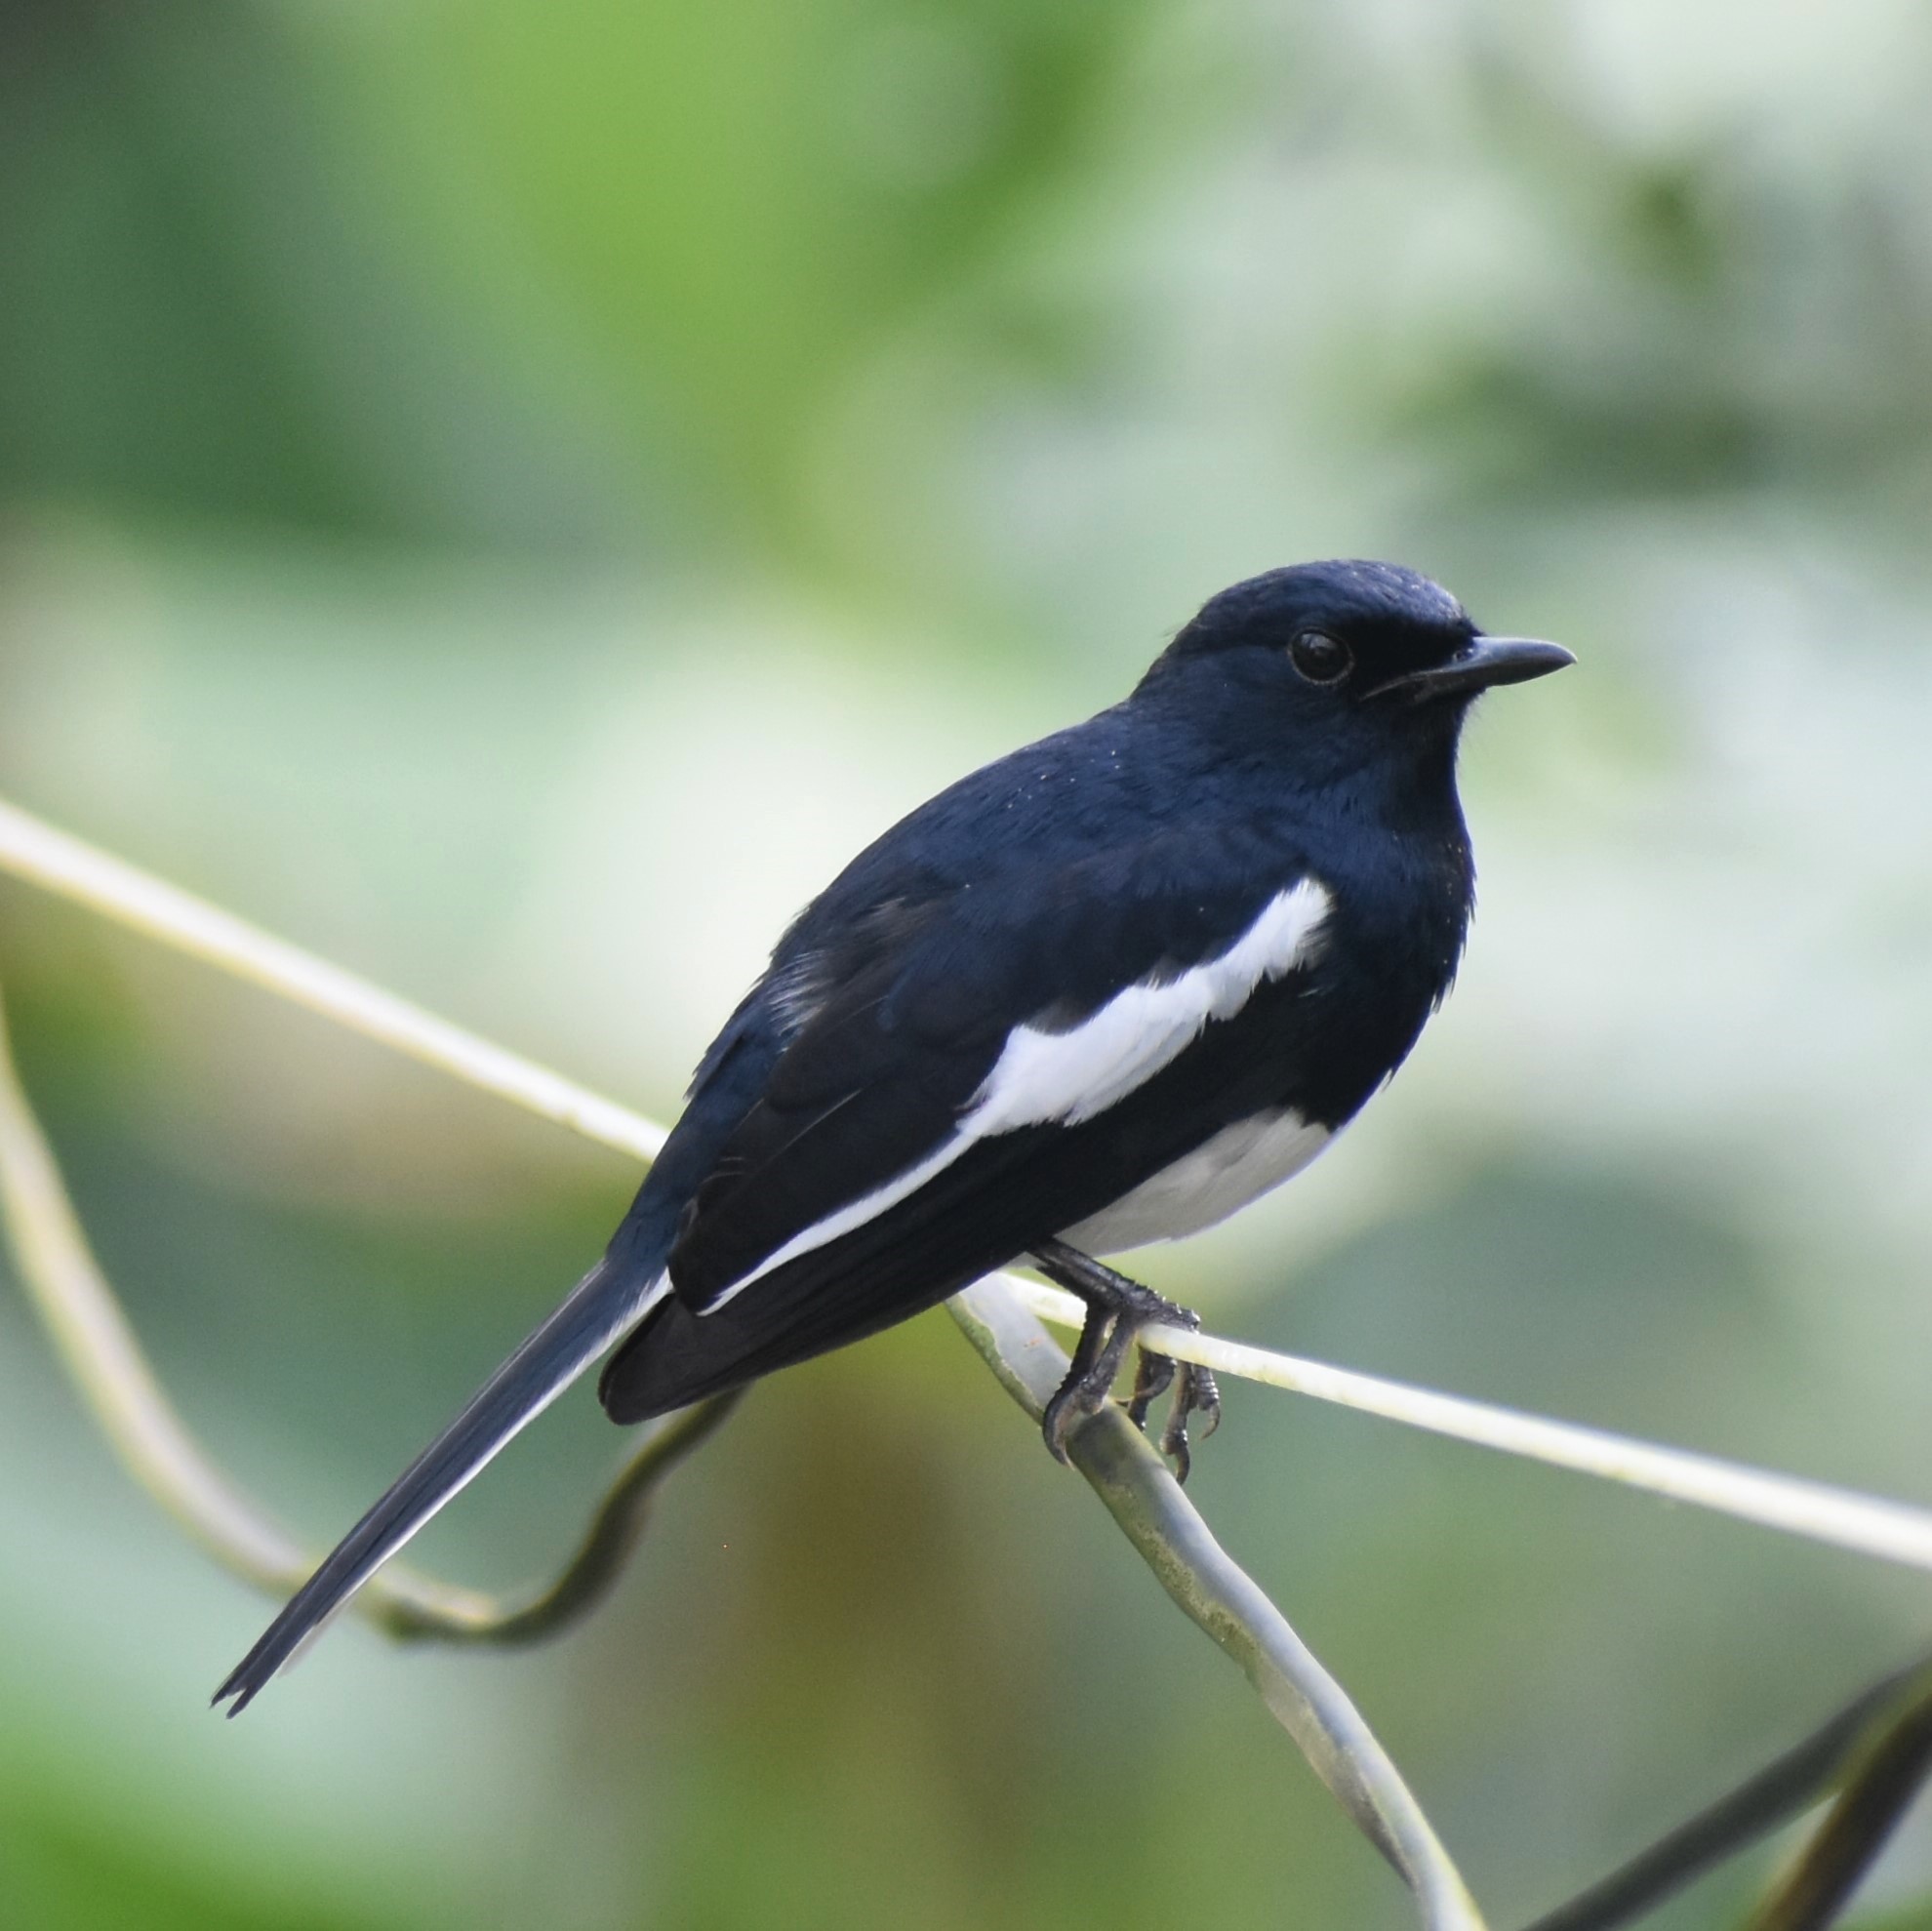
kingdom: Animalia
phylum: Chordata
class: Aves
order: Passeriformes
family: Muscicapidae
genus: Copsychus
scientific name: Copsychus saularis
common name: Oriental magpie-robin
